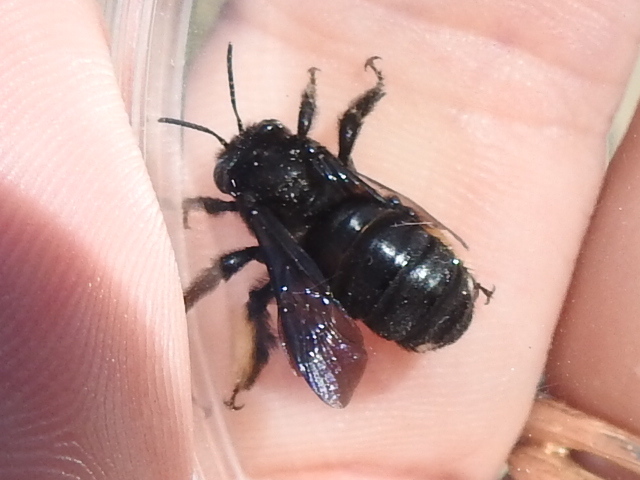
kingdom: Animalia
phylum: Arthropoda
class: Insecta
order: Hymenoptera
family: Apidae
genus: Melissodes
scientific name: Melissodes bimaculatus
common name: Two-spotted long-horned bee
